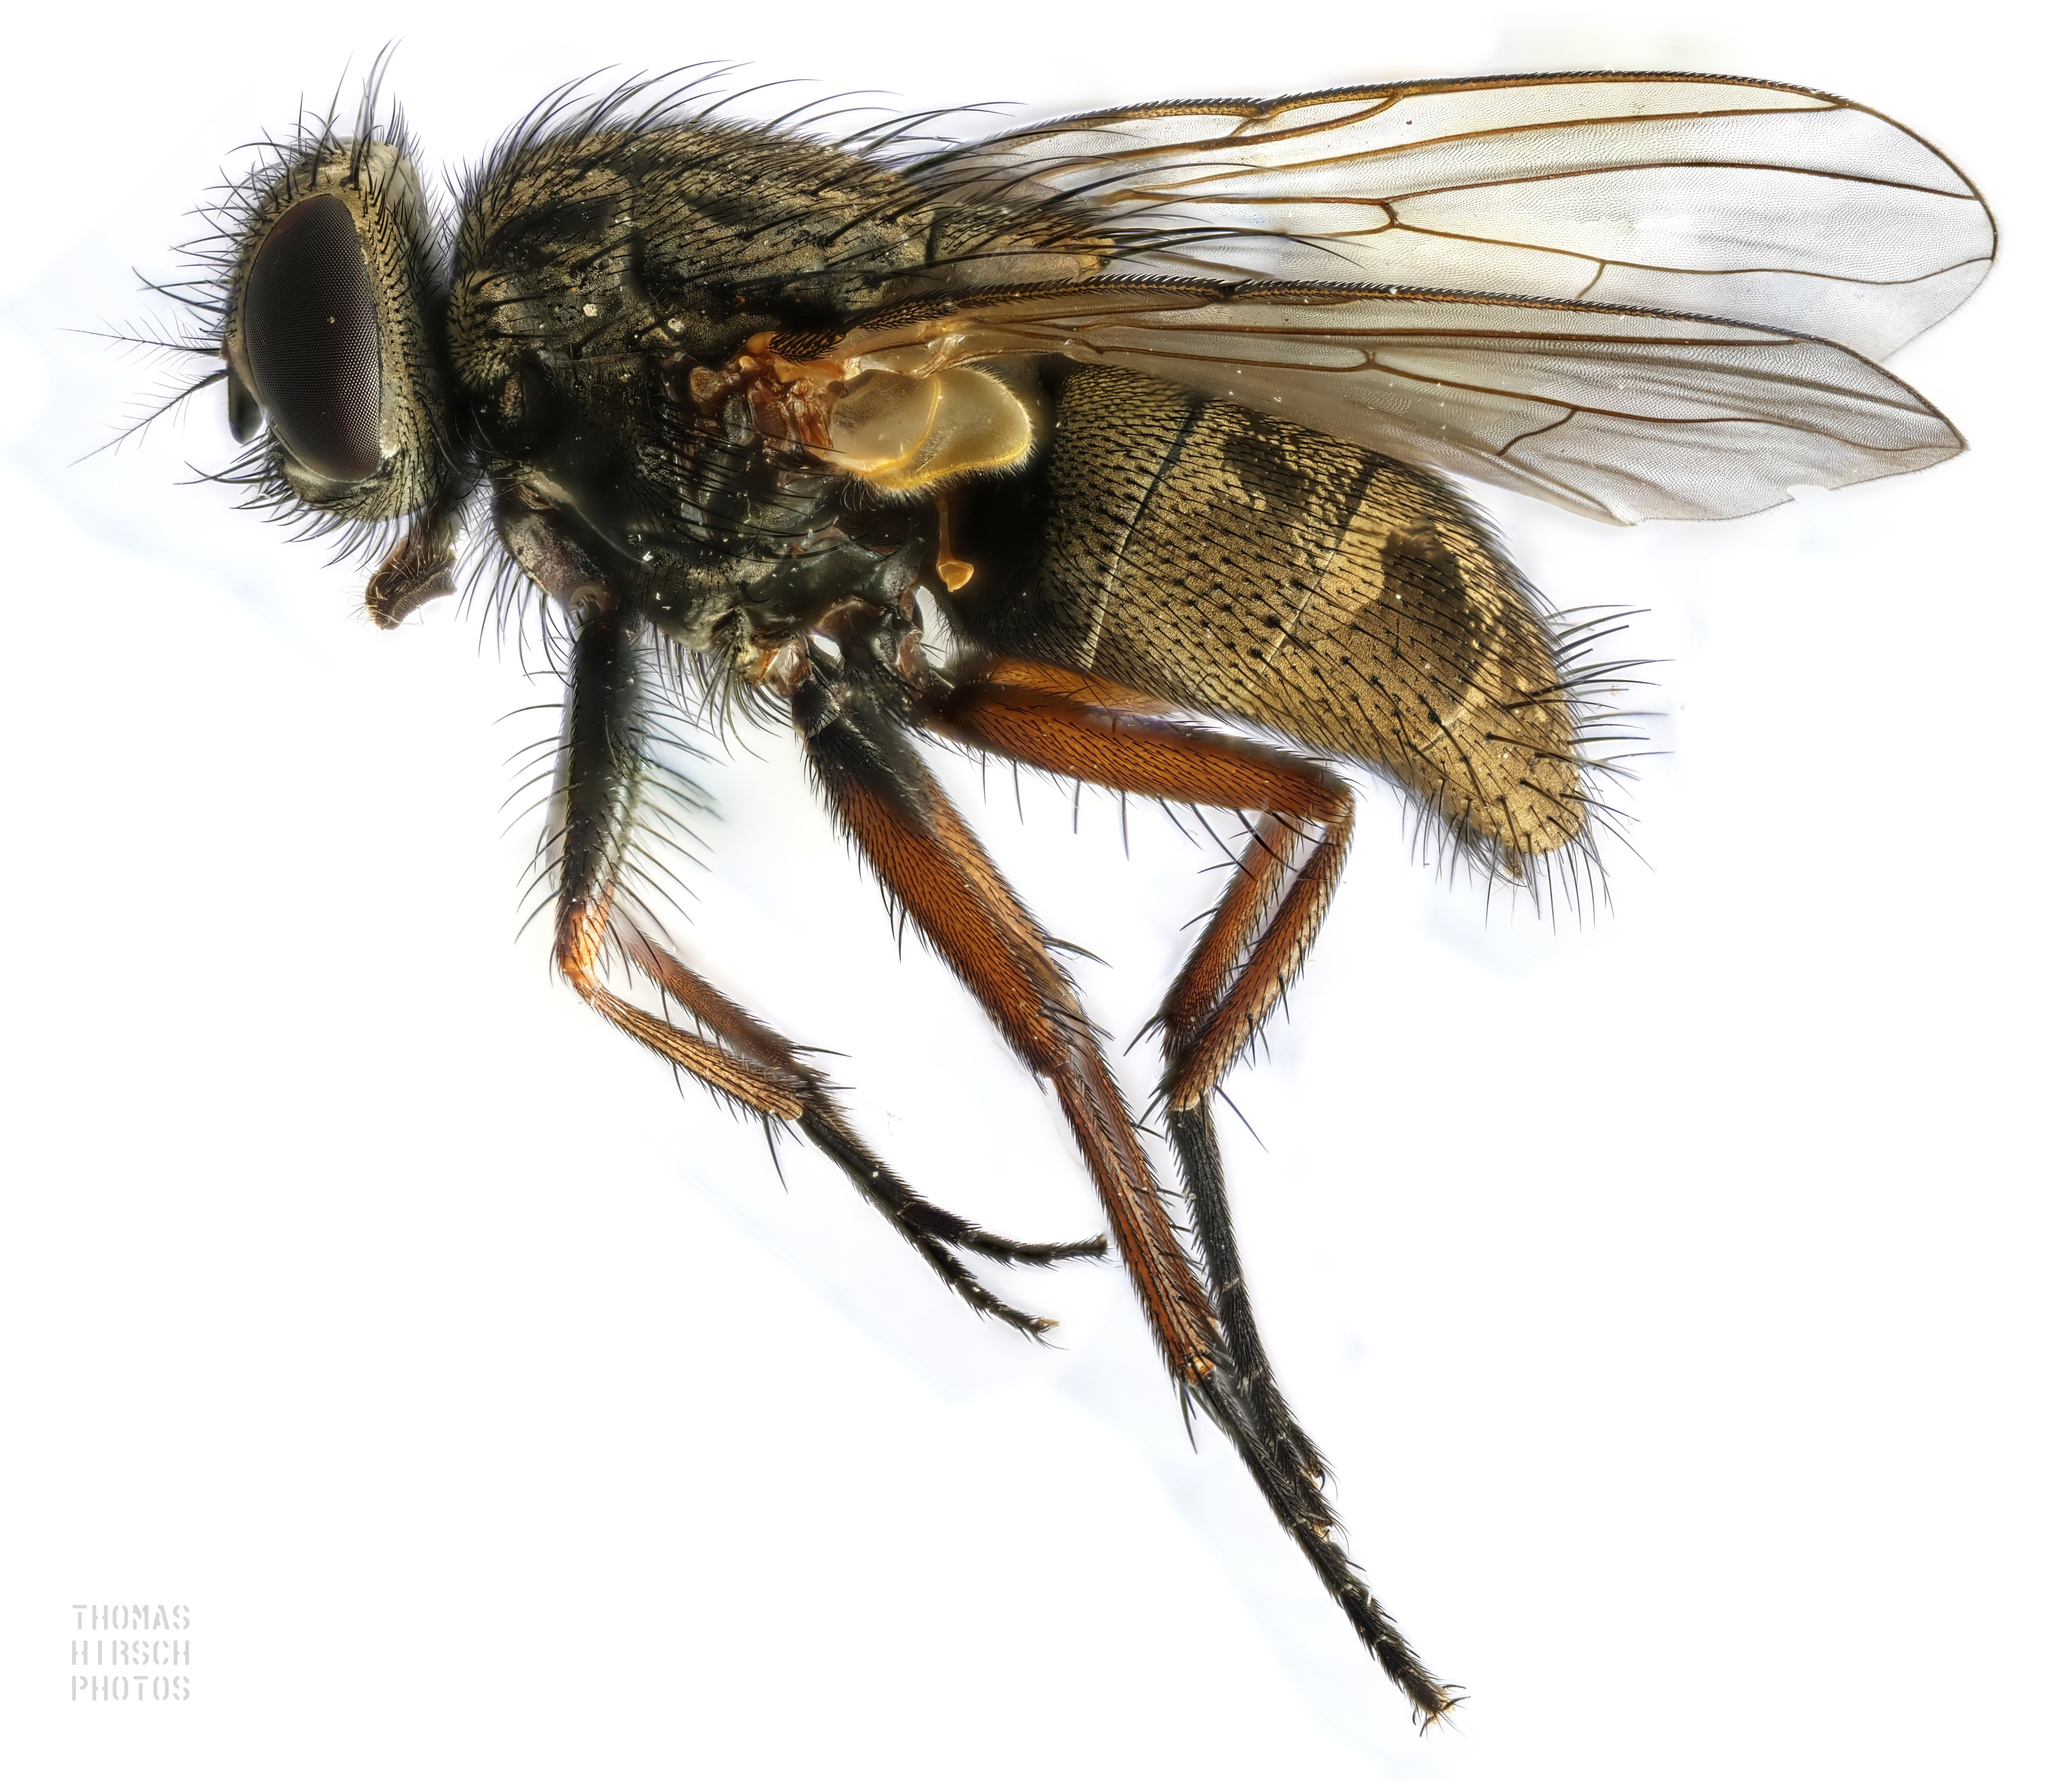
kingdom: Animalia
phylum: Arthropoda
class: Insecta
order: Diptera
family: Muscidae
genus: Muscina
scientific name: Muscina stabulans
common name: False stable fly
